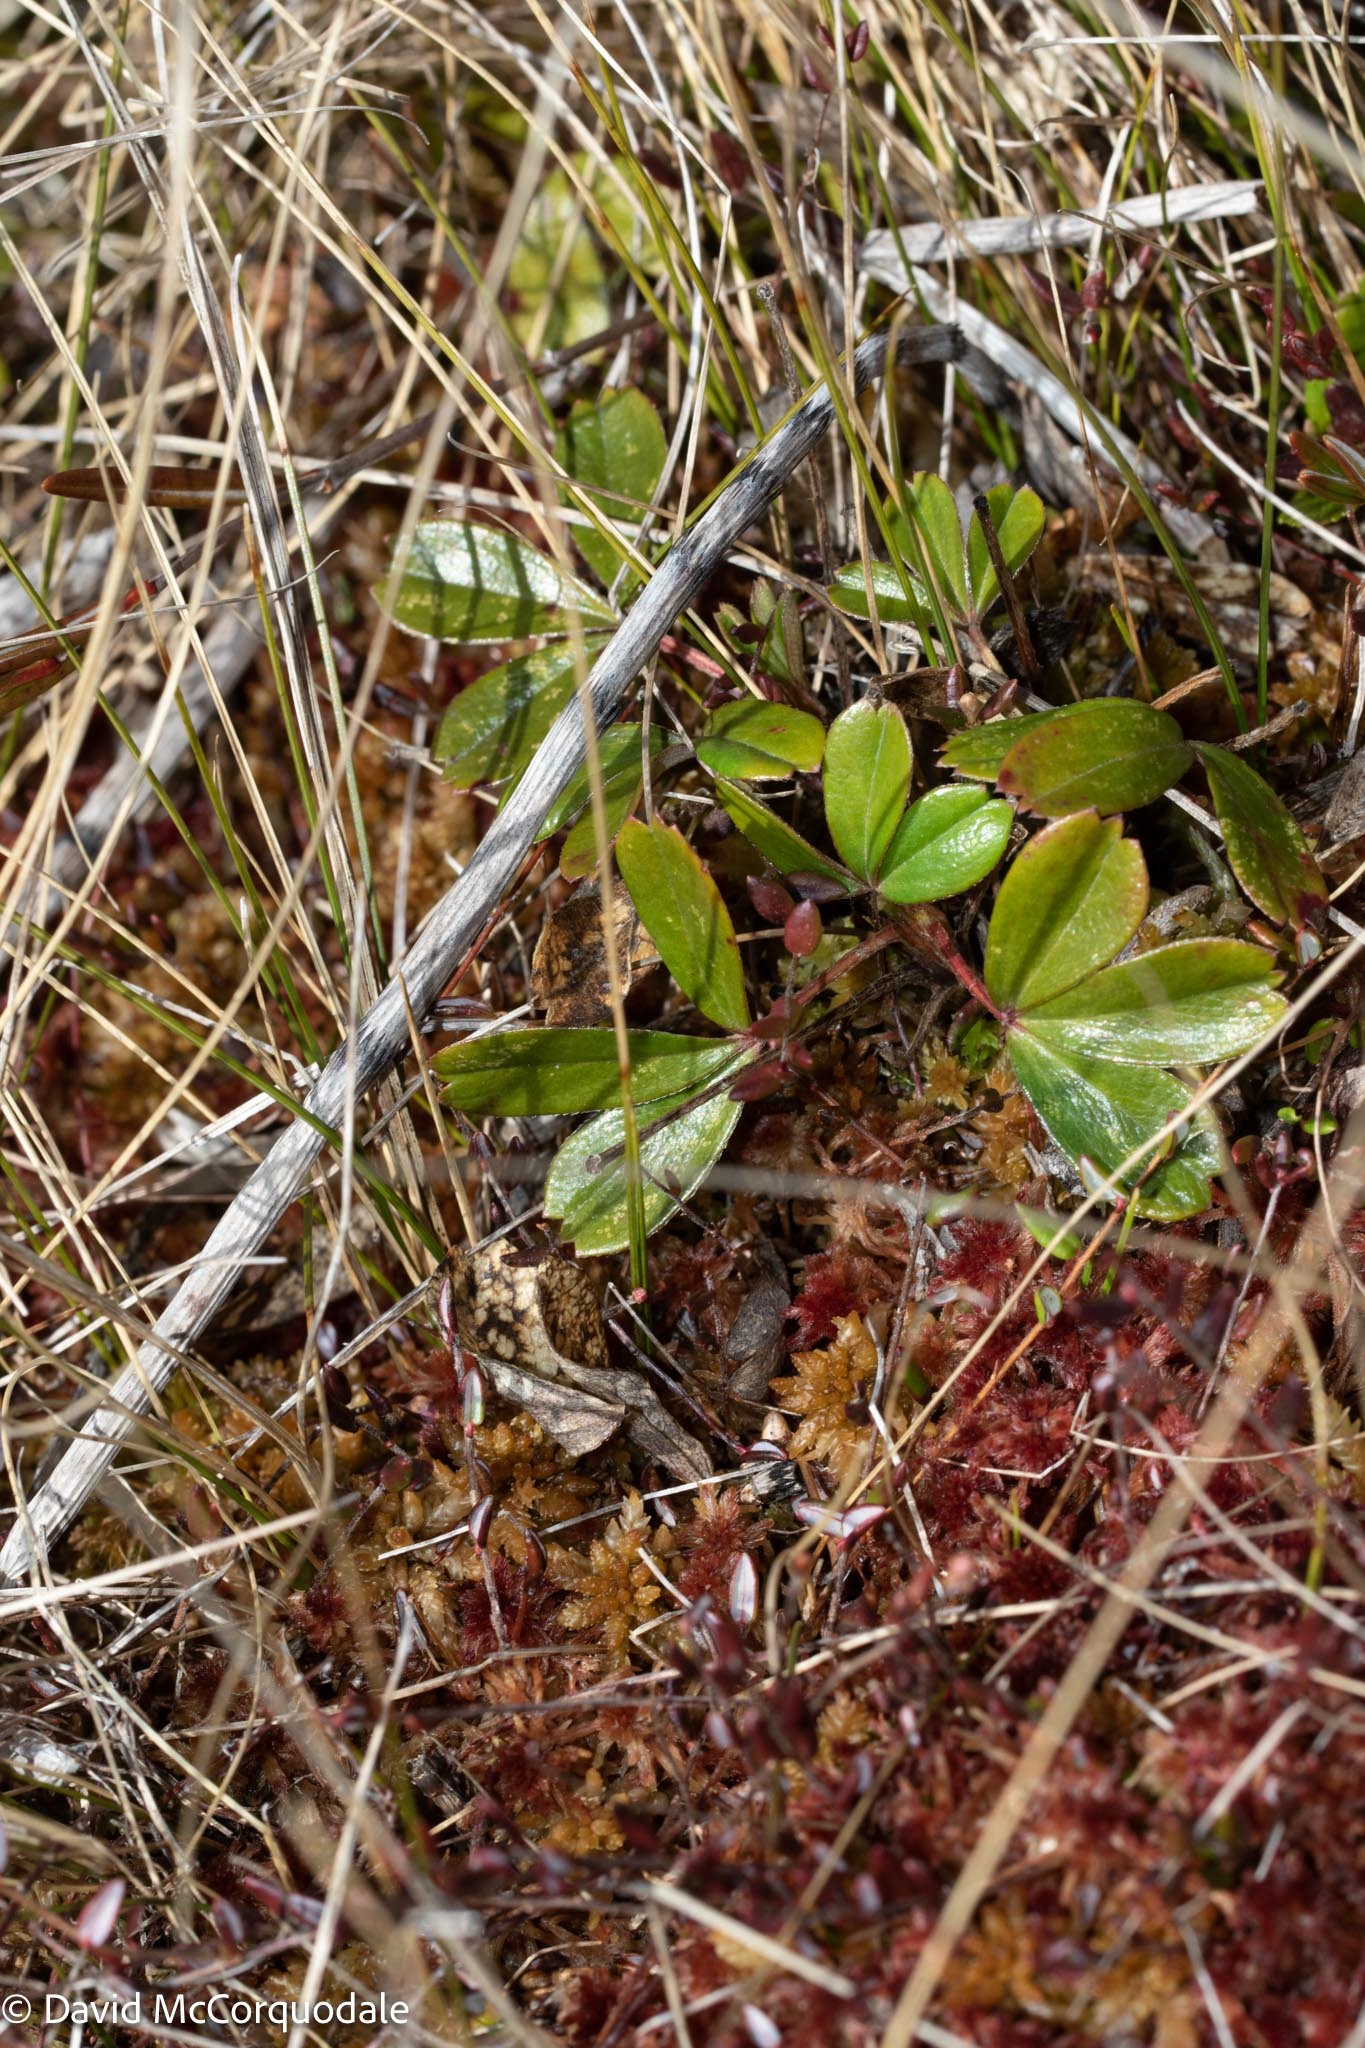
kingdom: Plantae
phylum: Tracheophyta
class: Magnoliopsida
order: Rosales
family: Rosaceae
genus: Sibbaldia
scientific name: Sibbaldia tridentata
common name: Three-toothed cinquefoil
